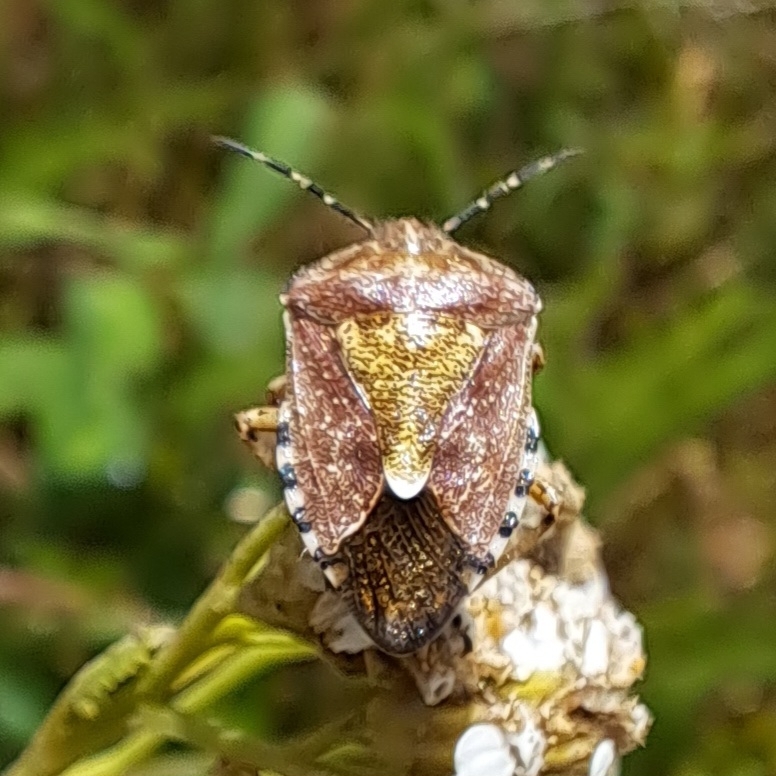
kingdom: Animalia
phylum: Arthropoda
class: Insecta
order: Hemiptera
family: Pentatomidae
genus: Dolycoris
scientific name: Dolycoris baccarum
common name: Sloe bug
